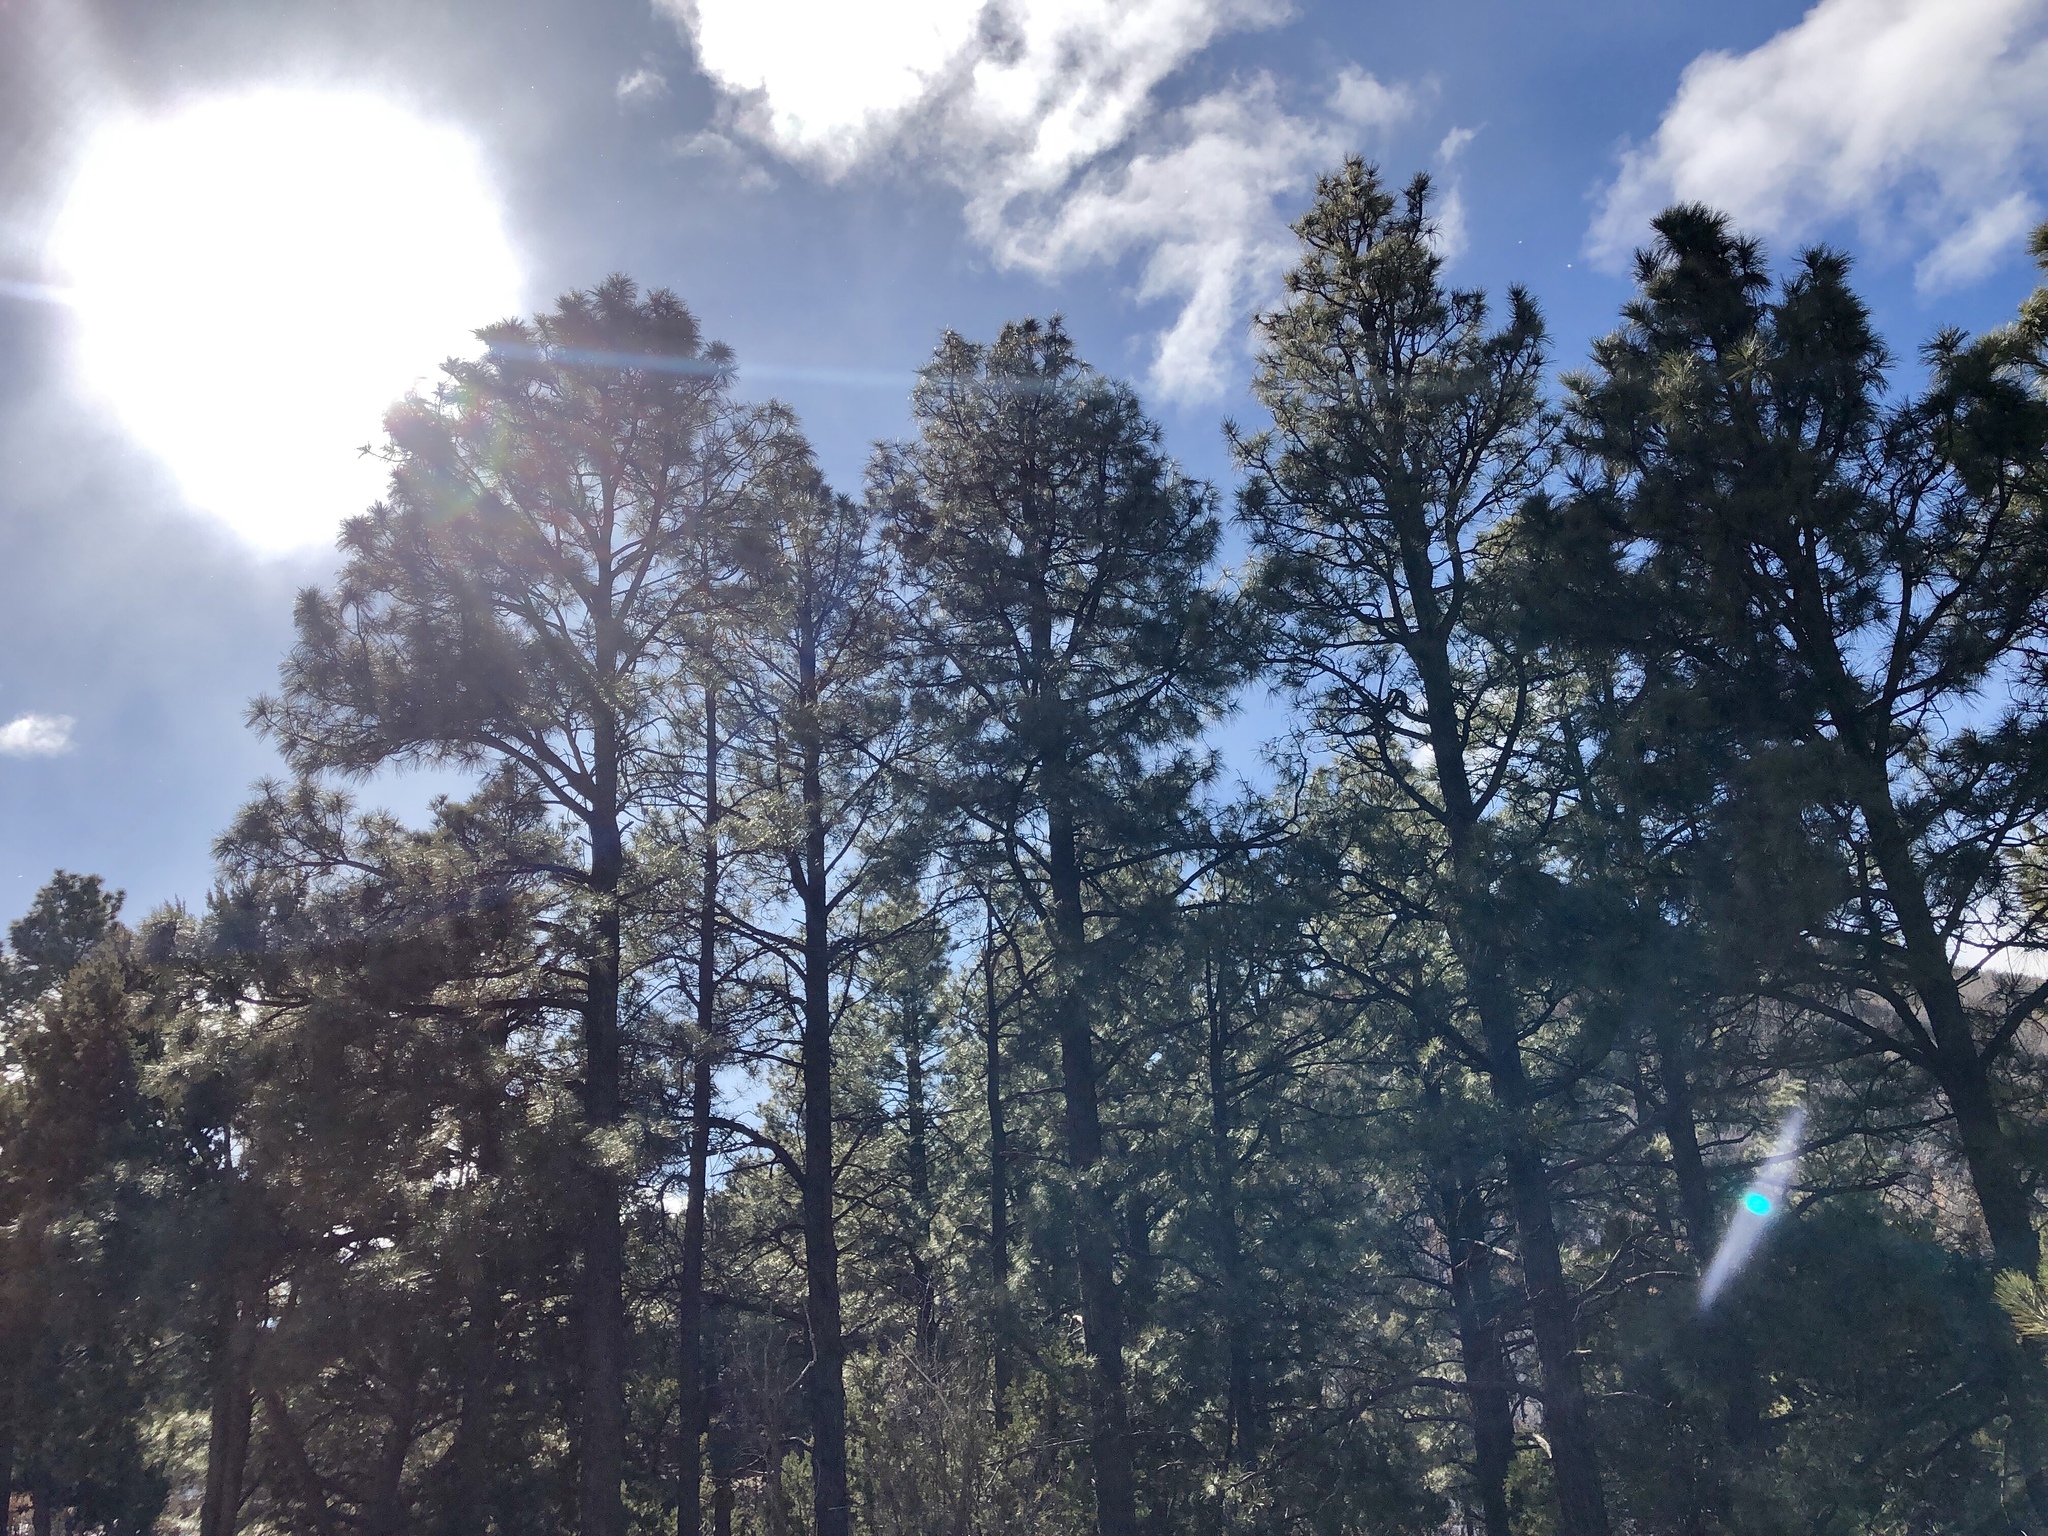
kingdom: Plantae
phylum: Tracheophyta
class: Pinopsida
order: Pinales
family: Pinaceae
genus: Pinus
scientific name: Pinus ponderosa
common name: Western yellow-pine
